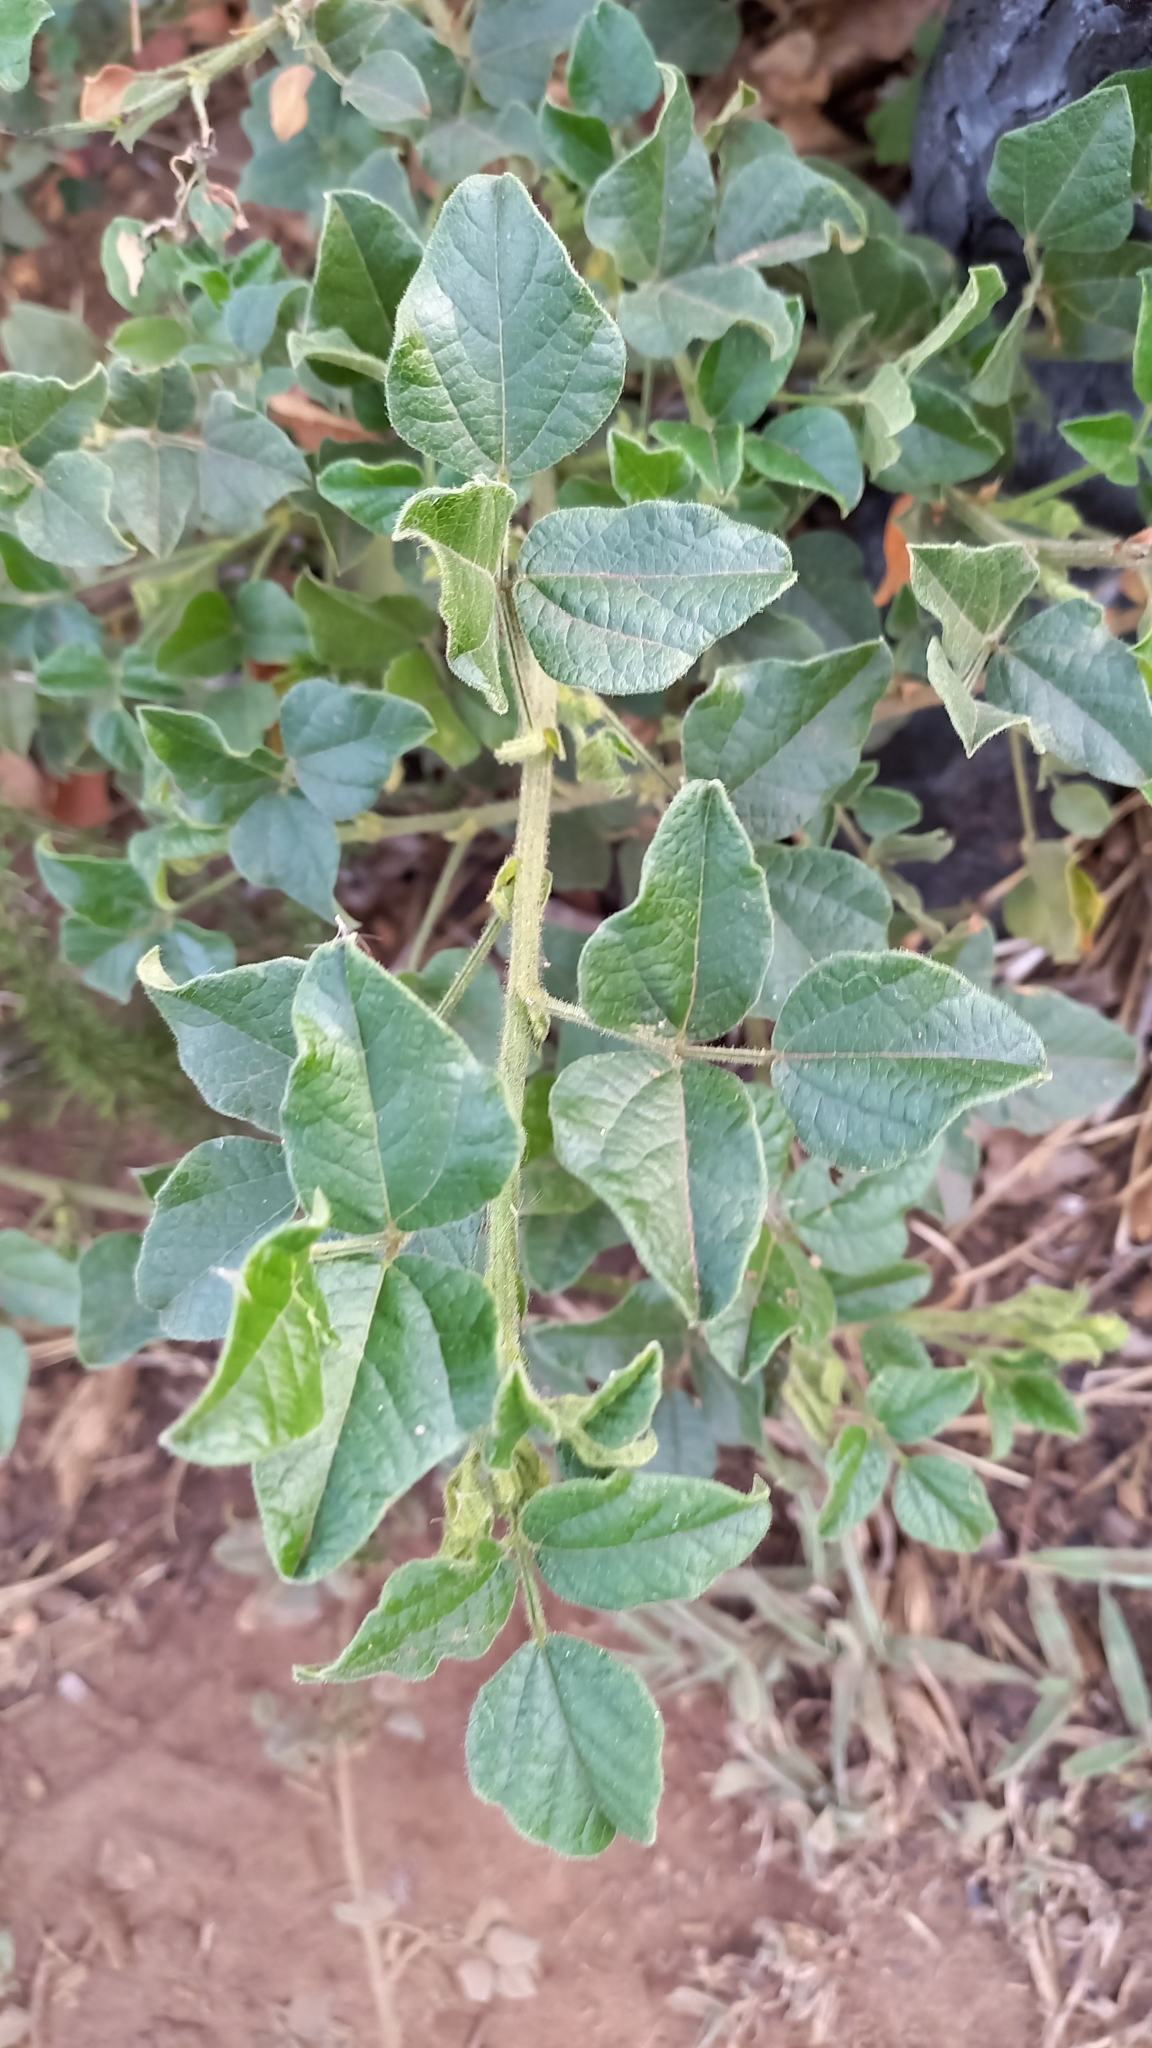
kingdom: Plantae
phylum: Tracheophyta
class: Magnoliopsida
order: Fabales
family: Fabaceae
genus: Bolusafra
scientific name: Bolusafra bituminosa
